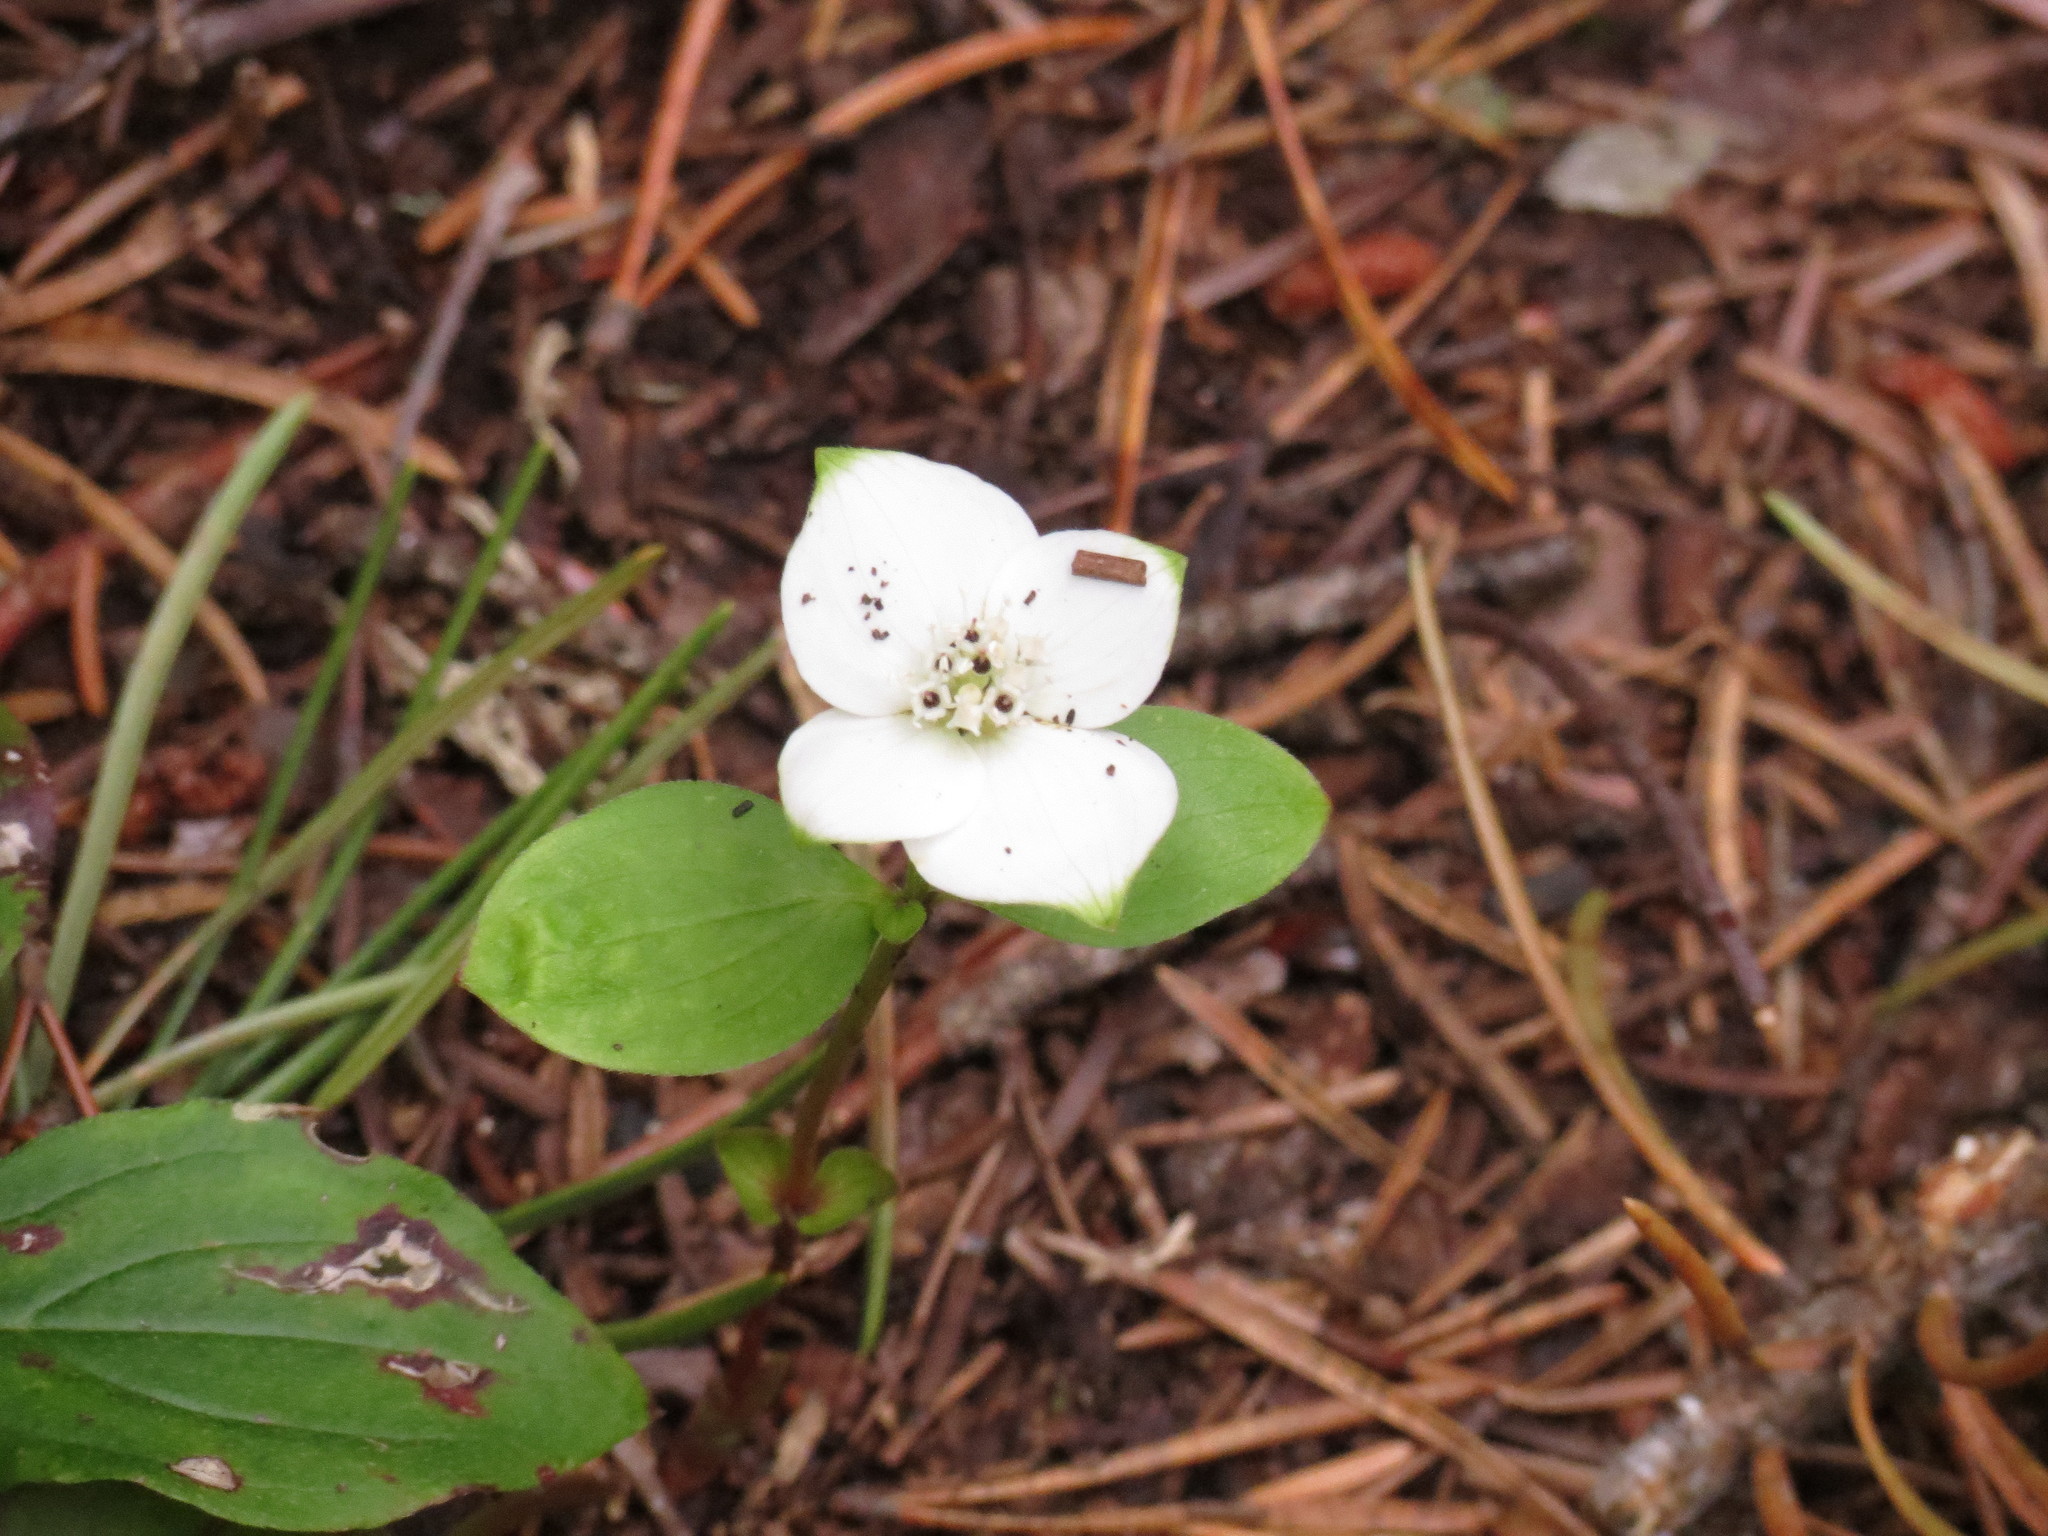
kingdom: Plantae
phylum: Tracheophyta
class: Magnoliopsida
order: Cornales
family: Cornaceae
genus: Cornus
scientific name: Cornus canadensis
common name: Creeping dogwood
